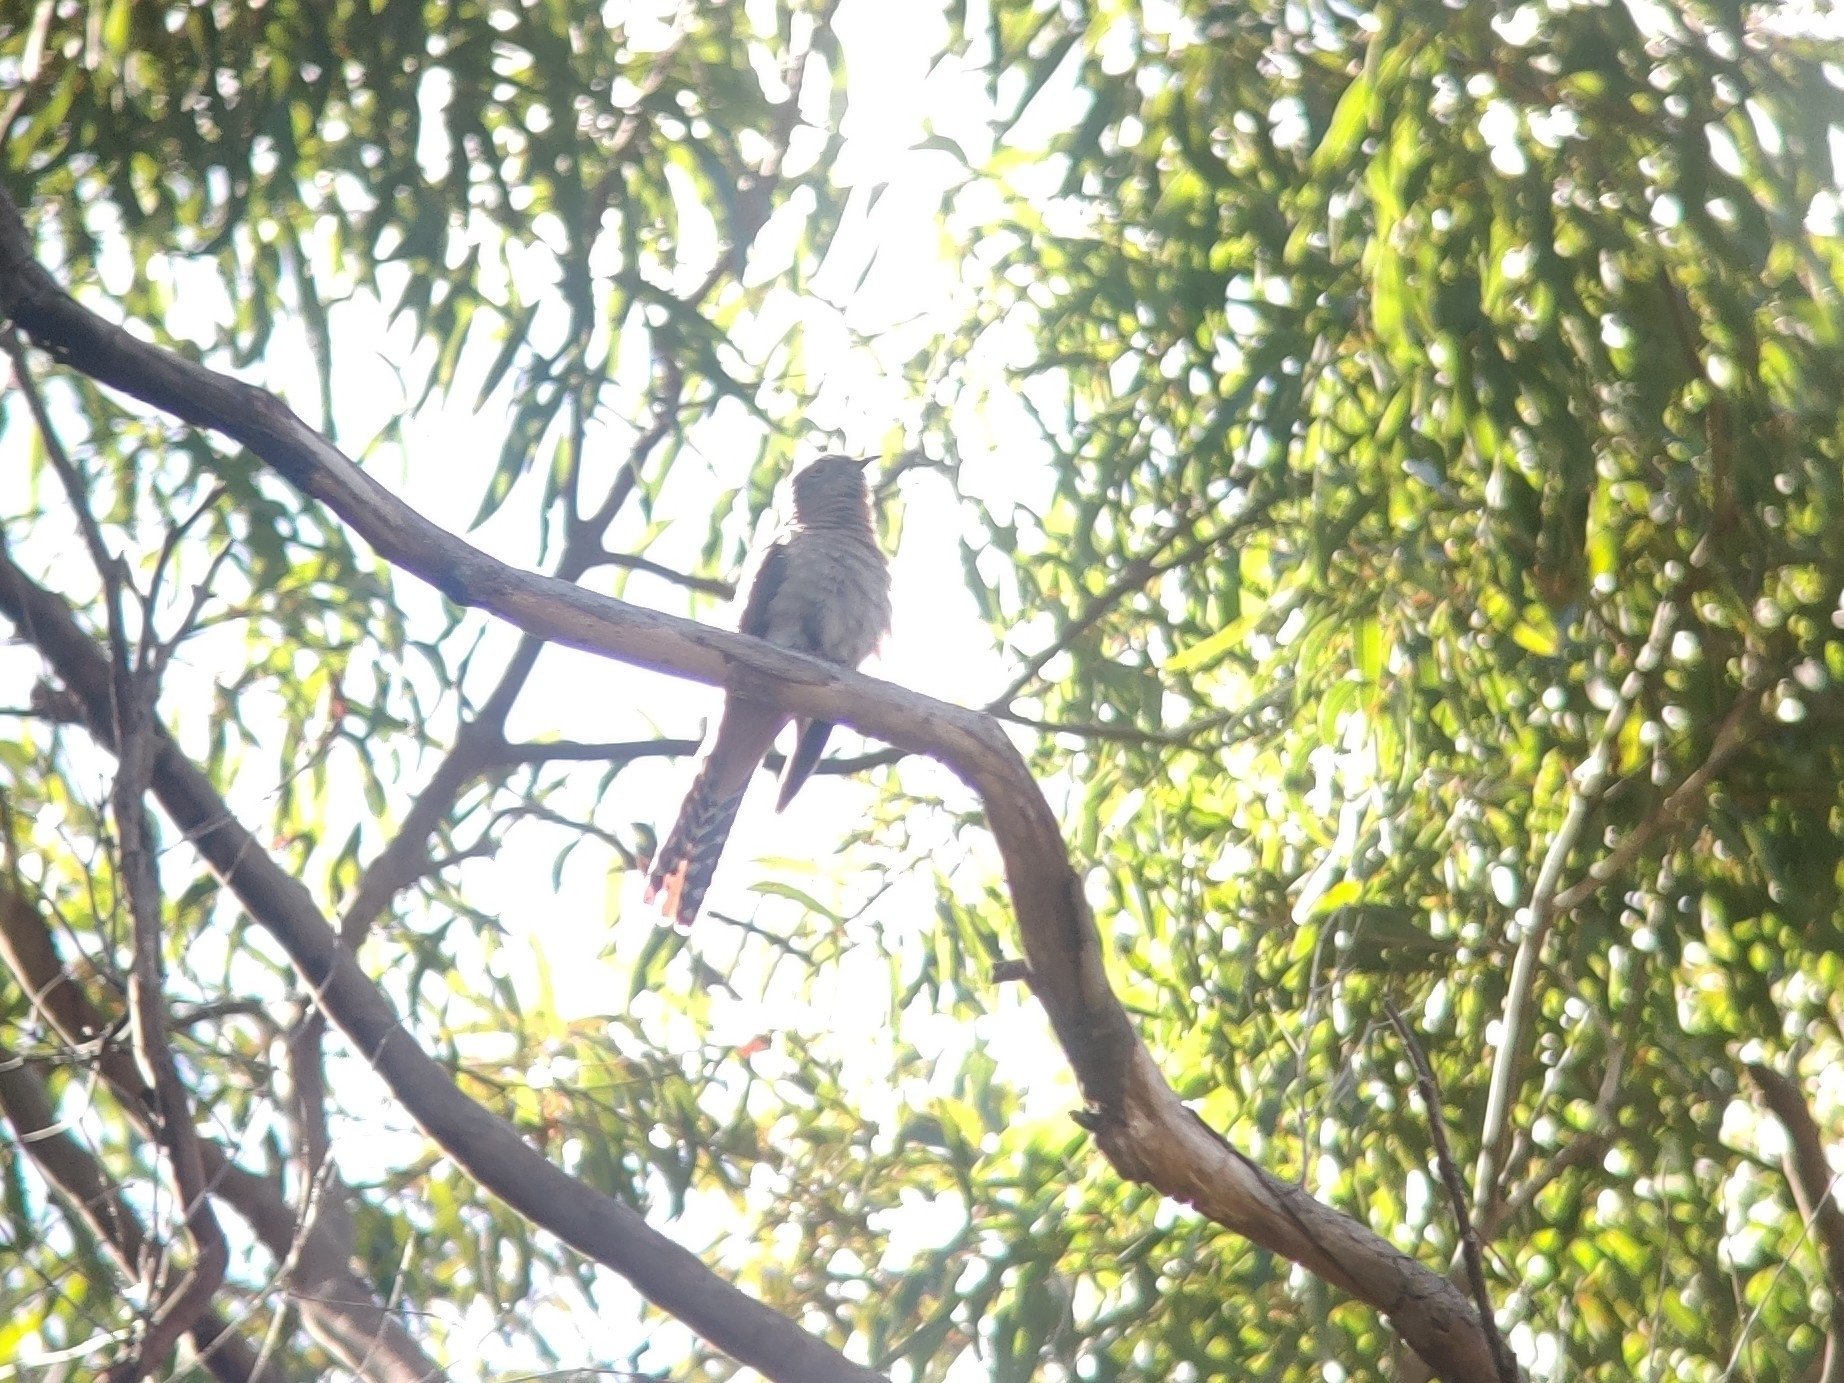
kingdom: Animalia
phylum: Chordata
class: Aves
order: Cuculiformes
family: Cuculidae
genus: Cacomantis
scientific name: Cacomantis flabelliformis
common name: Fan-tailed cuckoo
